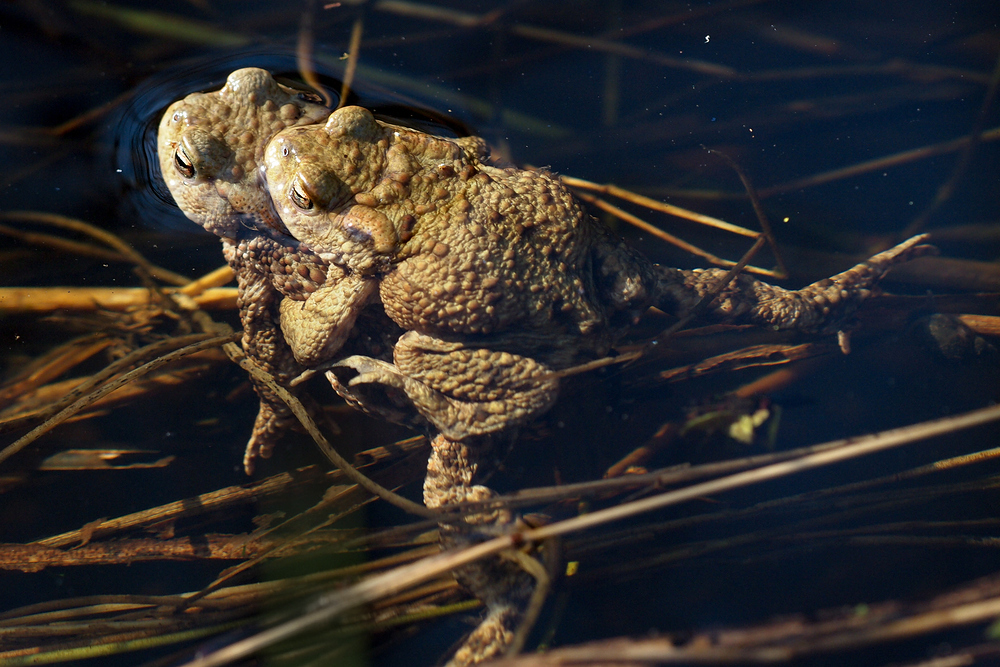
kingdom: Animalia
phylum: Chordata
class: Amphibia
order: Anura
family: Bufonidae
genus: Bufo
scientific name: Bufo bufo
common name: Common toad
